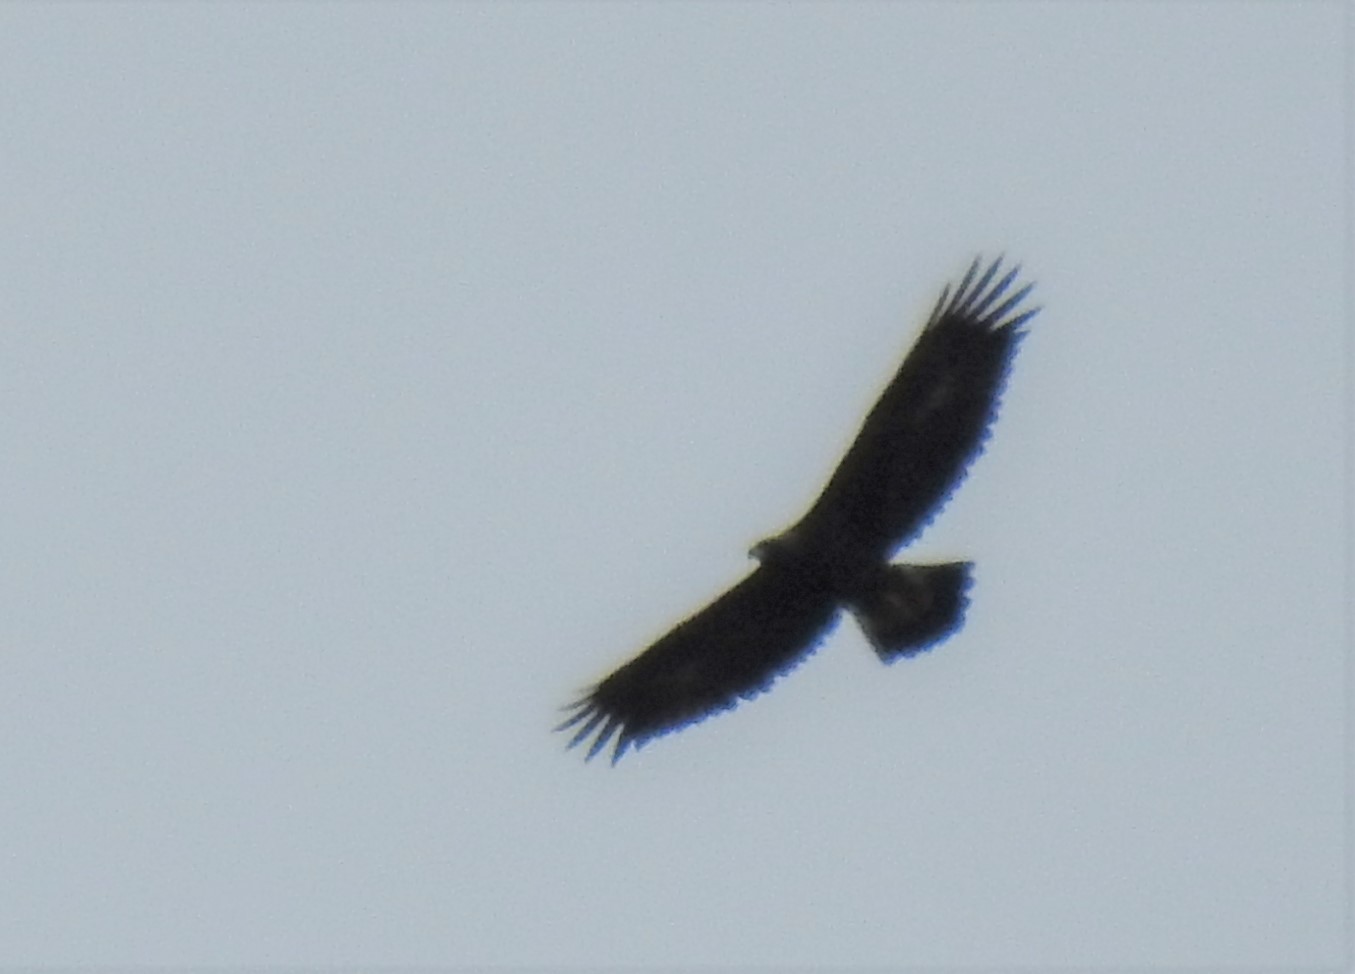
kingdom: Animalia
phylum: Chordata
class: Aves
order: Accipitriformes
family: Accipitridae
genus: Aquila
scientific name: Aquila chrysaetos
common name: Golden eagle
